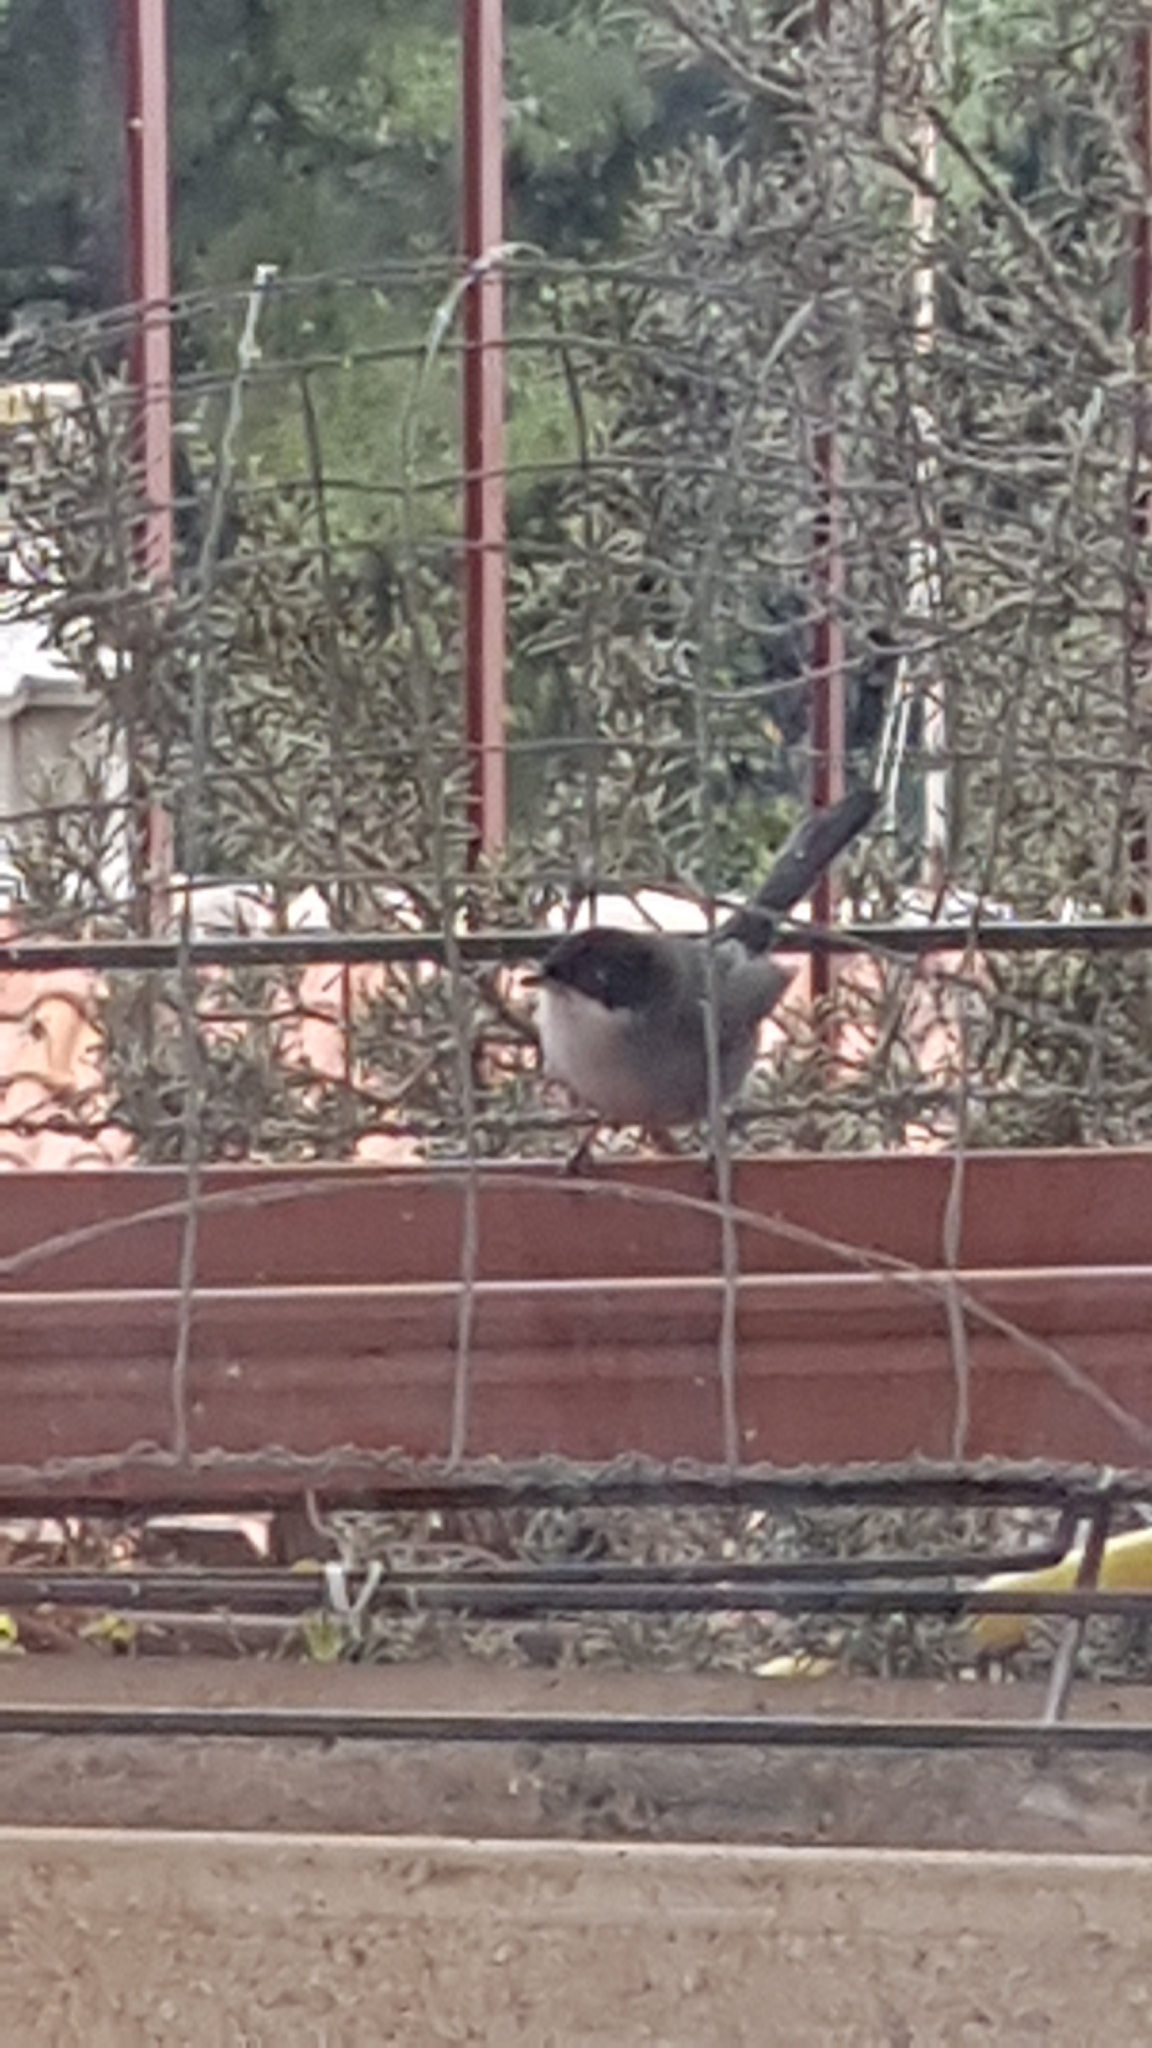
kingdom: Animalia
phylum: Chordata
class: Aves
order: Passeriformes
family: Sylviidae
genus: Curruca
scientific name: Curruca melanocephala
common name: Sardinian warbler
